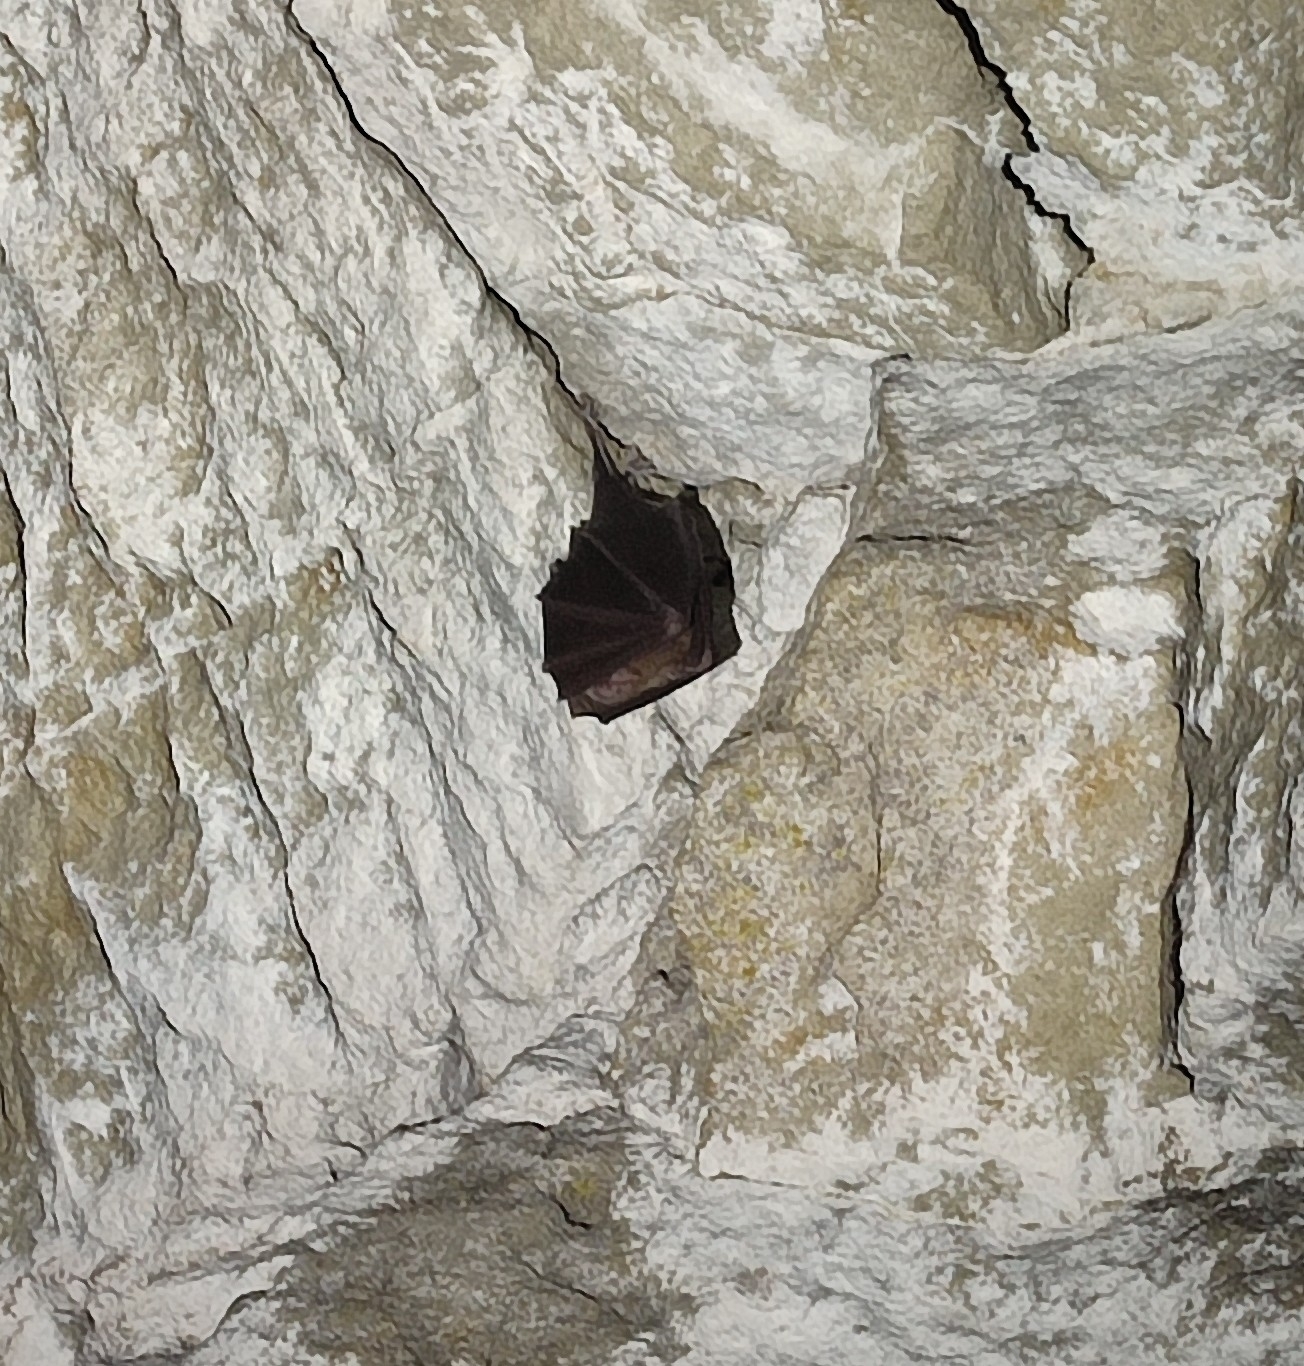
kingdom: Animalia
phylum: Chordata
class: Mammalia
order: Chiroptera
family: Rhinolophidae
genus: Rhinolophus
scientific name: Rhinolophus ferrumequinum
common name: Greater horseshoe bat
